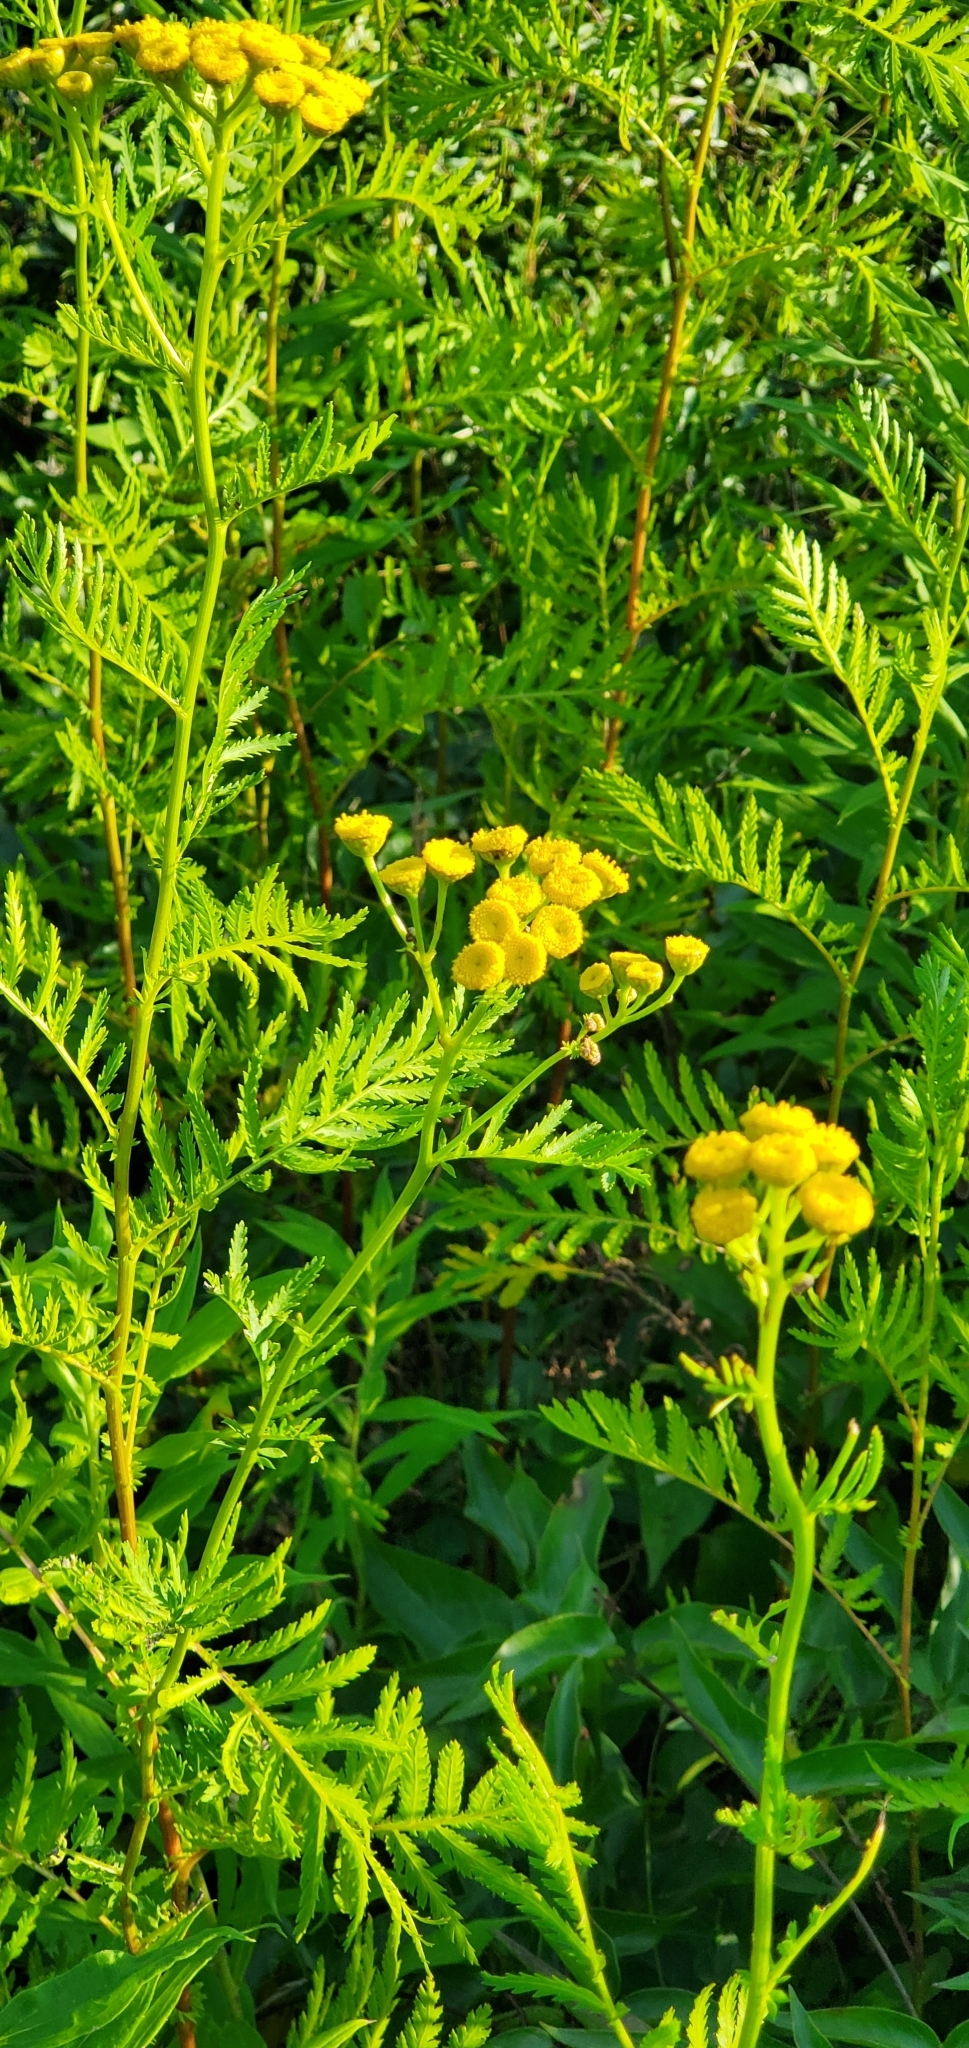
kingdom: Plantae
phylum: Tracheophyta
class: Magnoliopsida
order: Asterales
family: Asteraceae
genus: Tanacetum
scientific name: Tanacetum vulgare
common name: Common tansy
